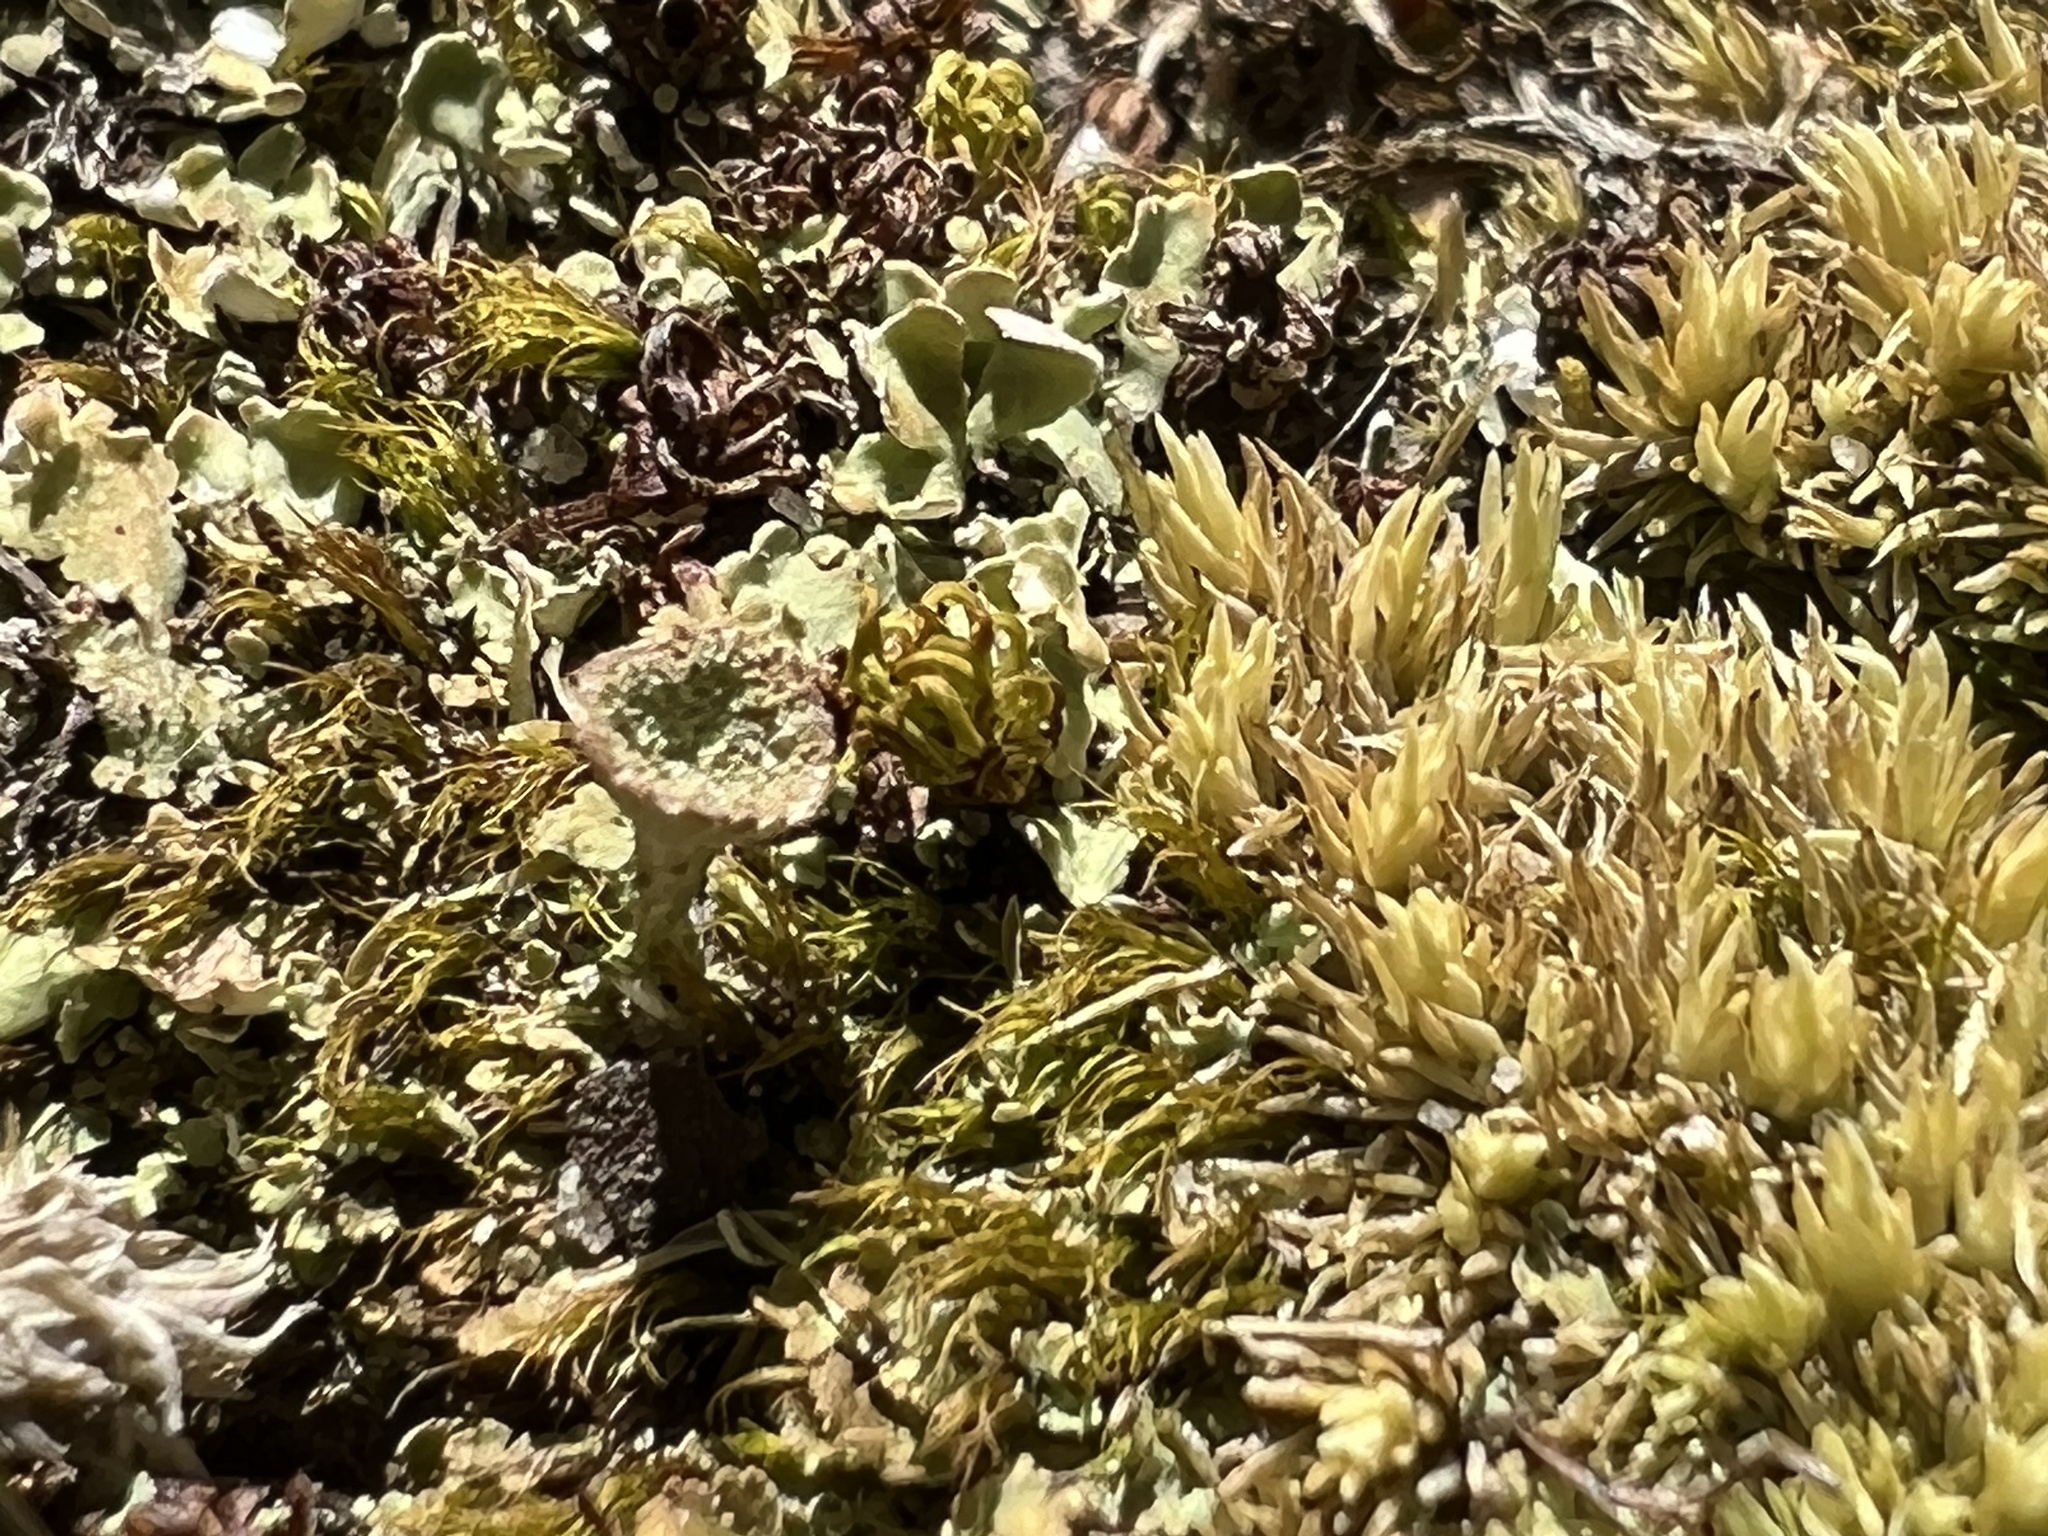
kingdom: Fungi
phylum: Ascomycota
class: Lecanoromycetes
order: Lecanorales
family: Cladoniaceae
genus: Cladonia
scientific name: Cladonia chlorophaea
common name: Mealy pixie cup
